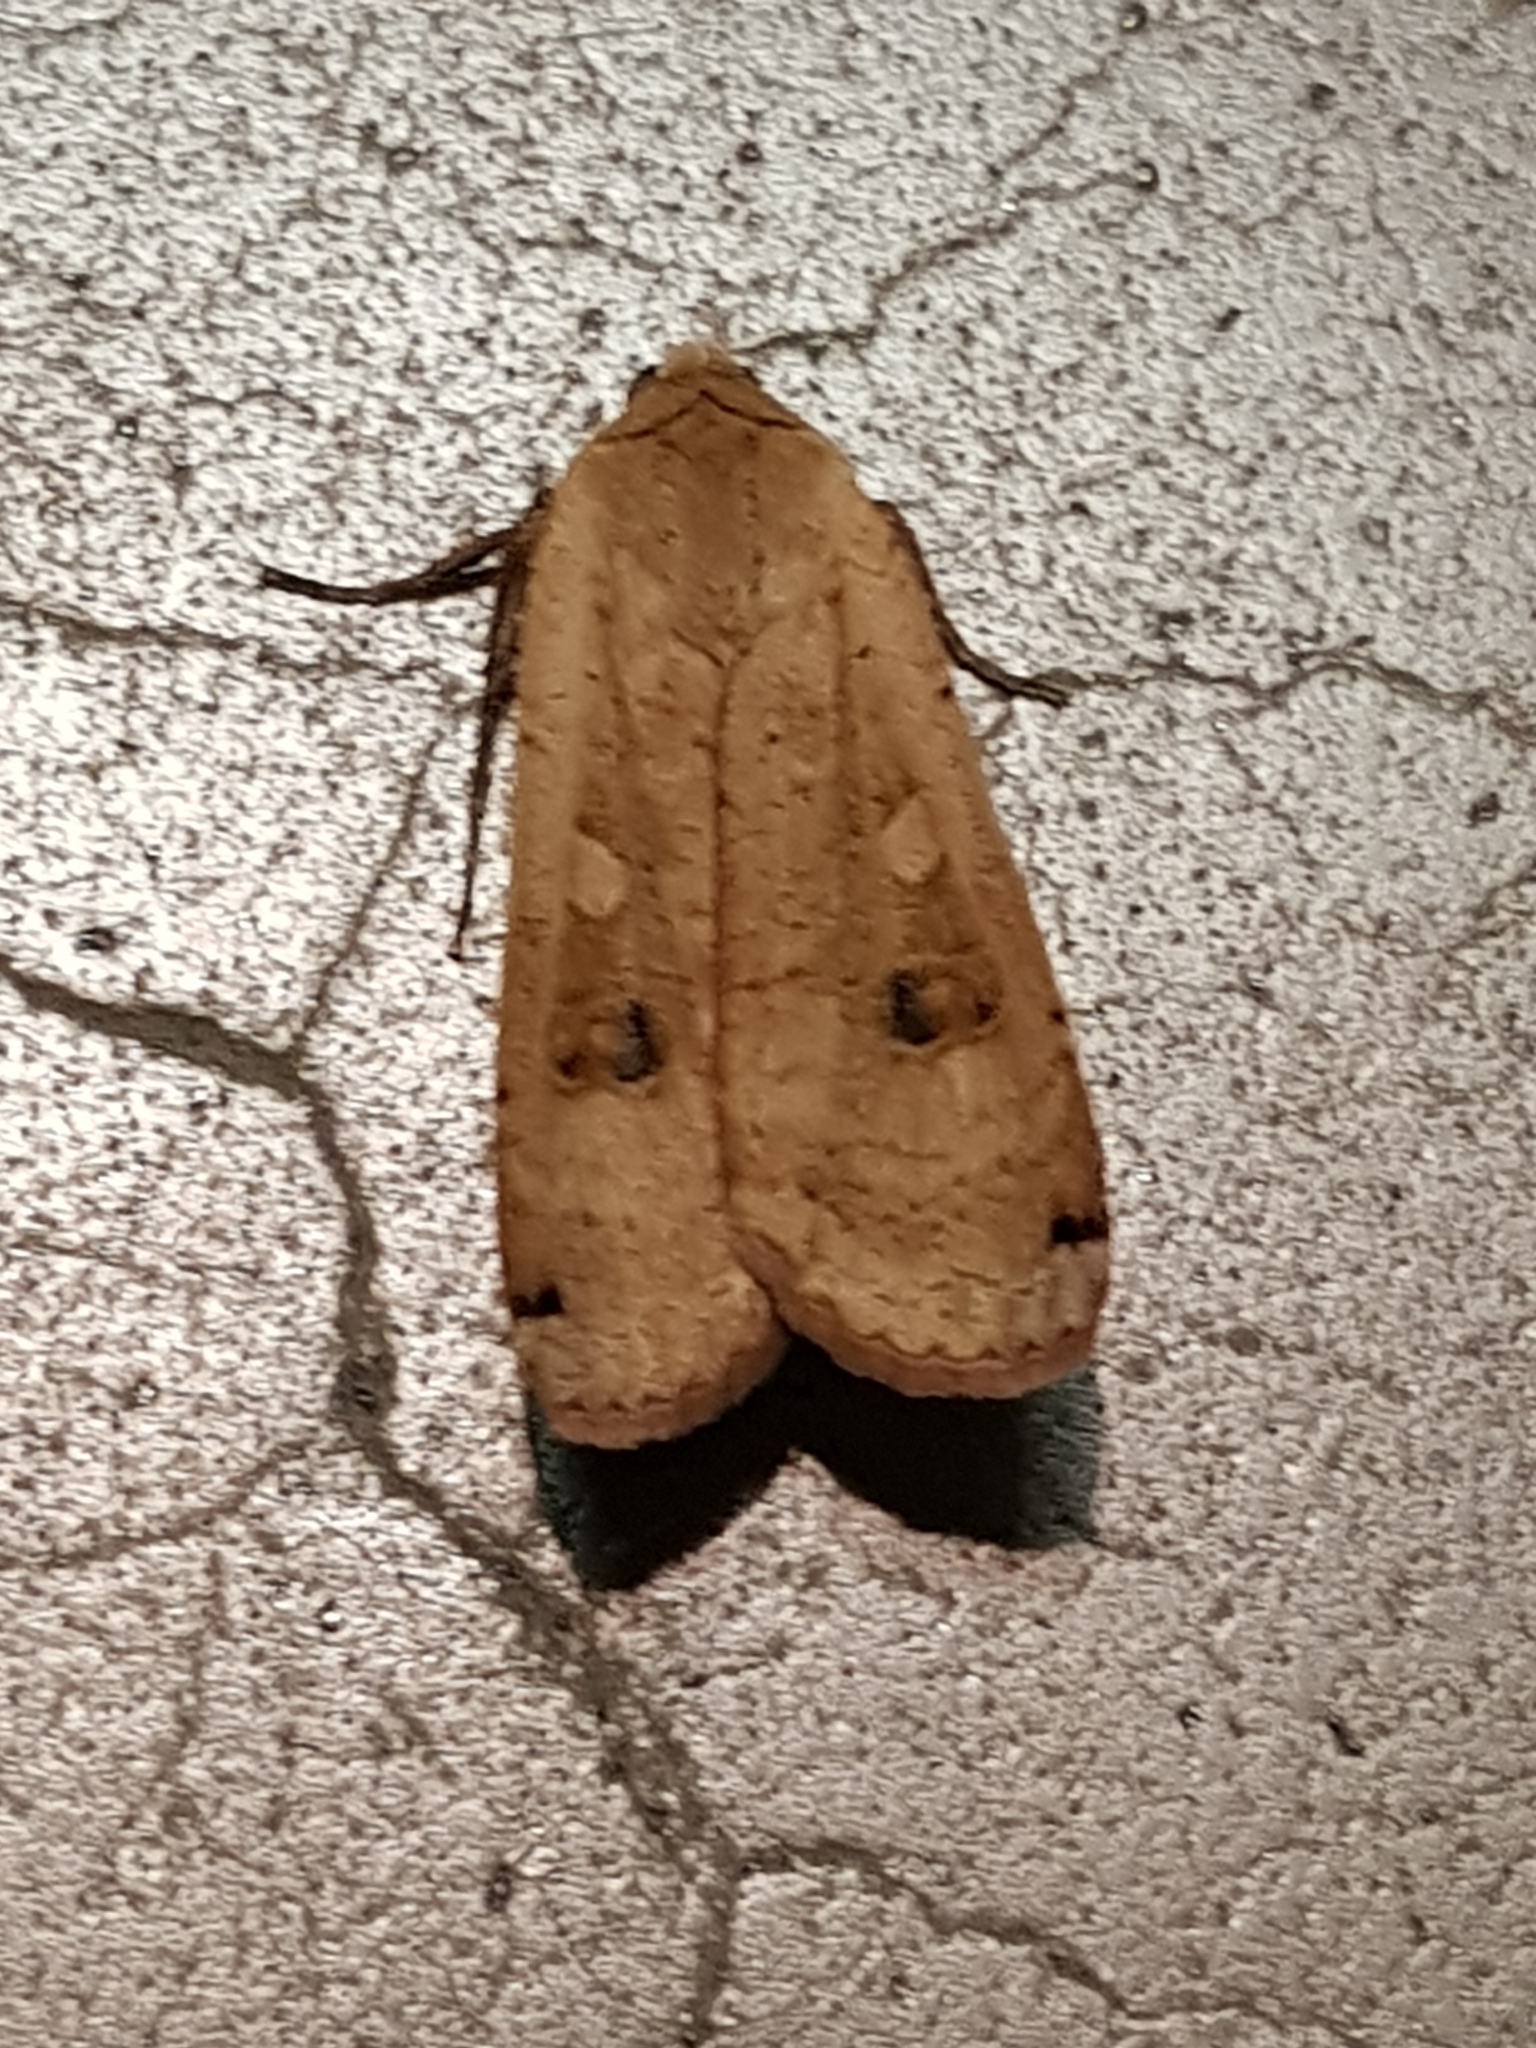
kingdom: Animalia
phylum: Arthropoda
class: Insecta
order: Lepidoptera
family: Noctuidae
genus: Noctua
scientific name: Noctua pronuba
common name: Large yellow underwing
